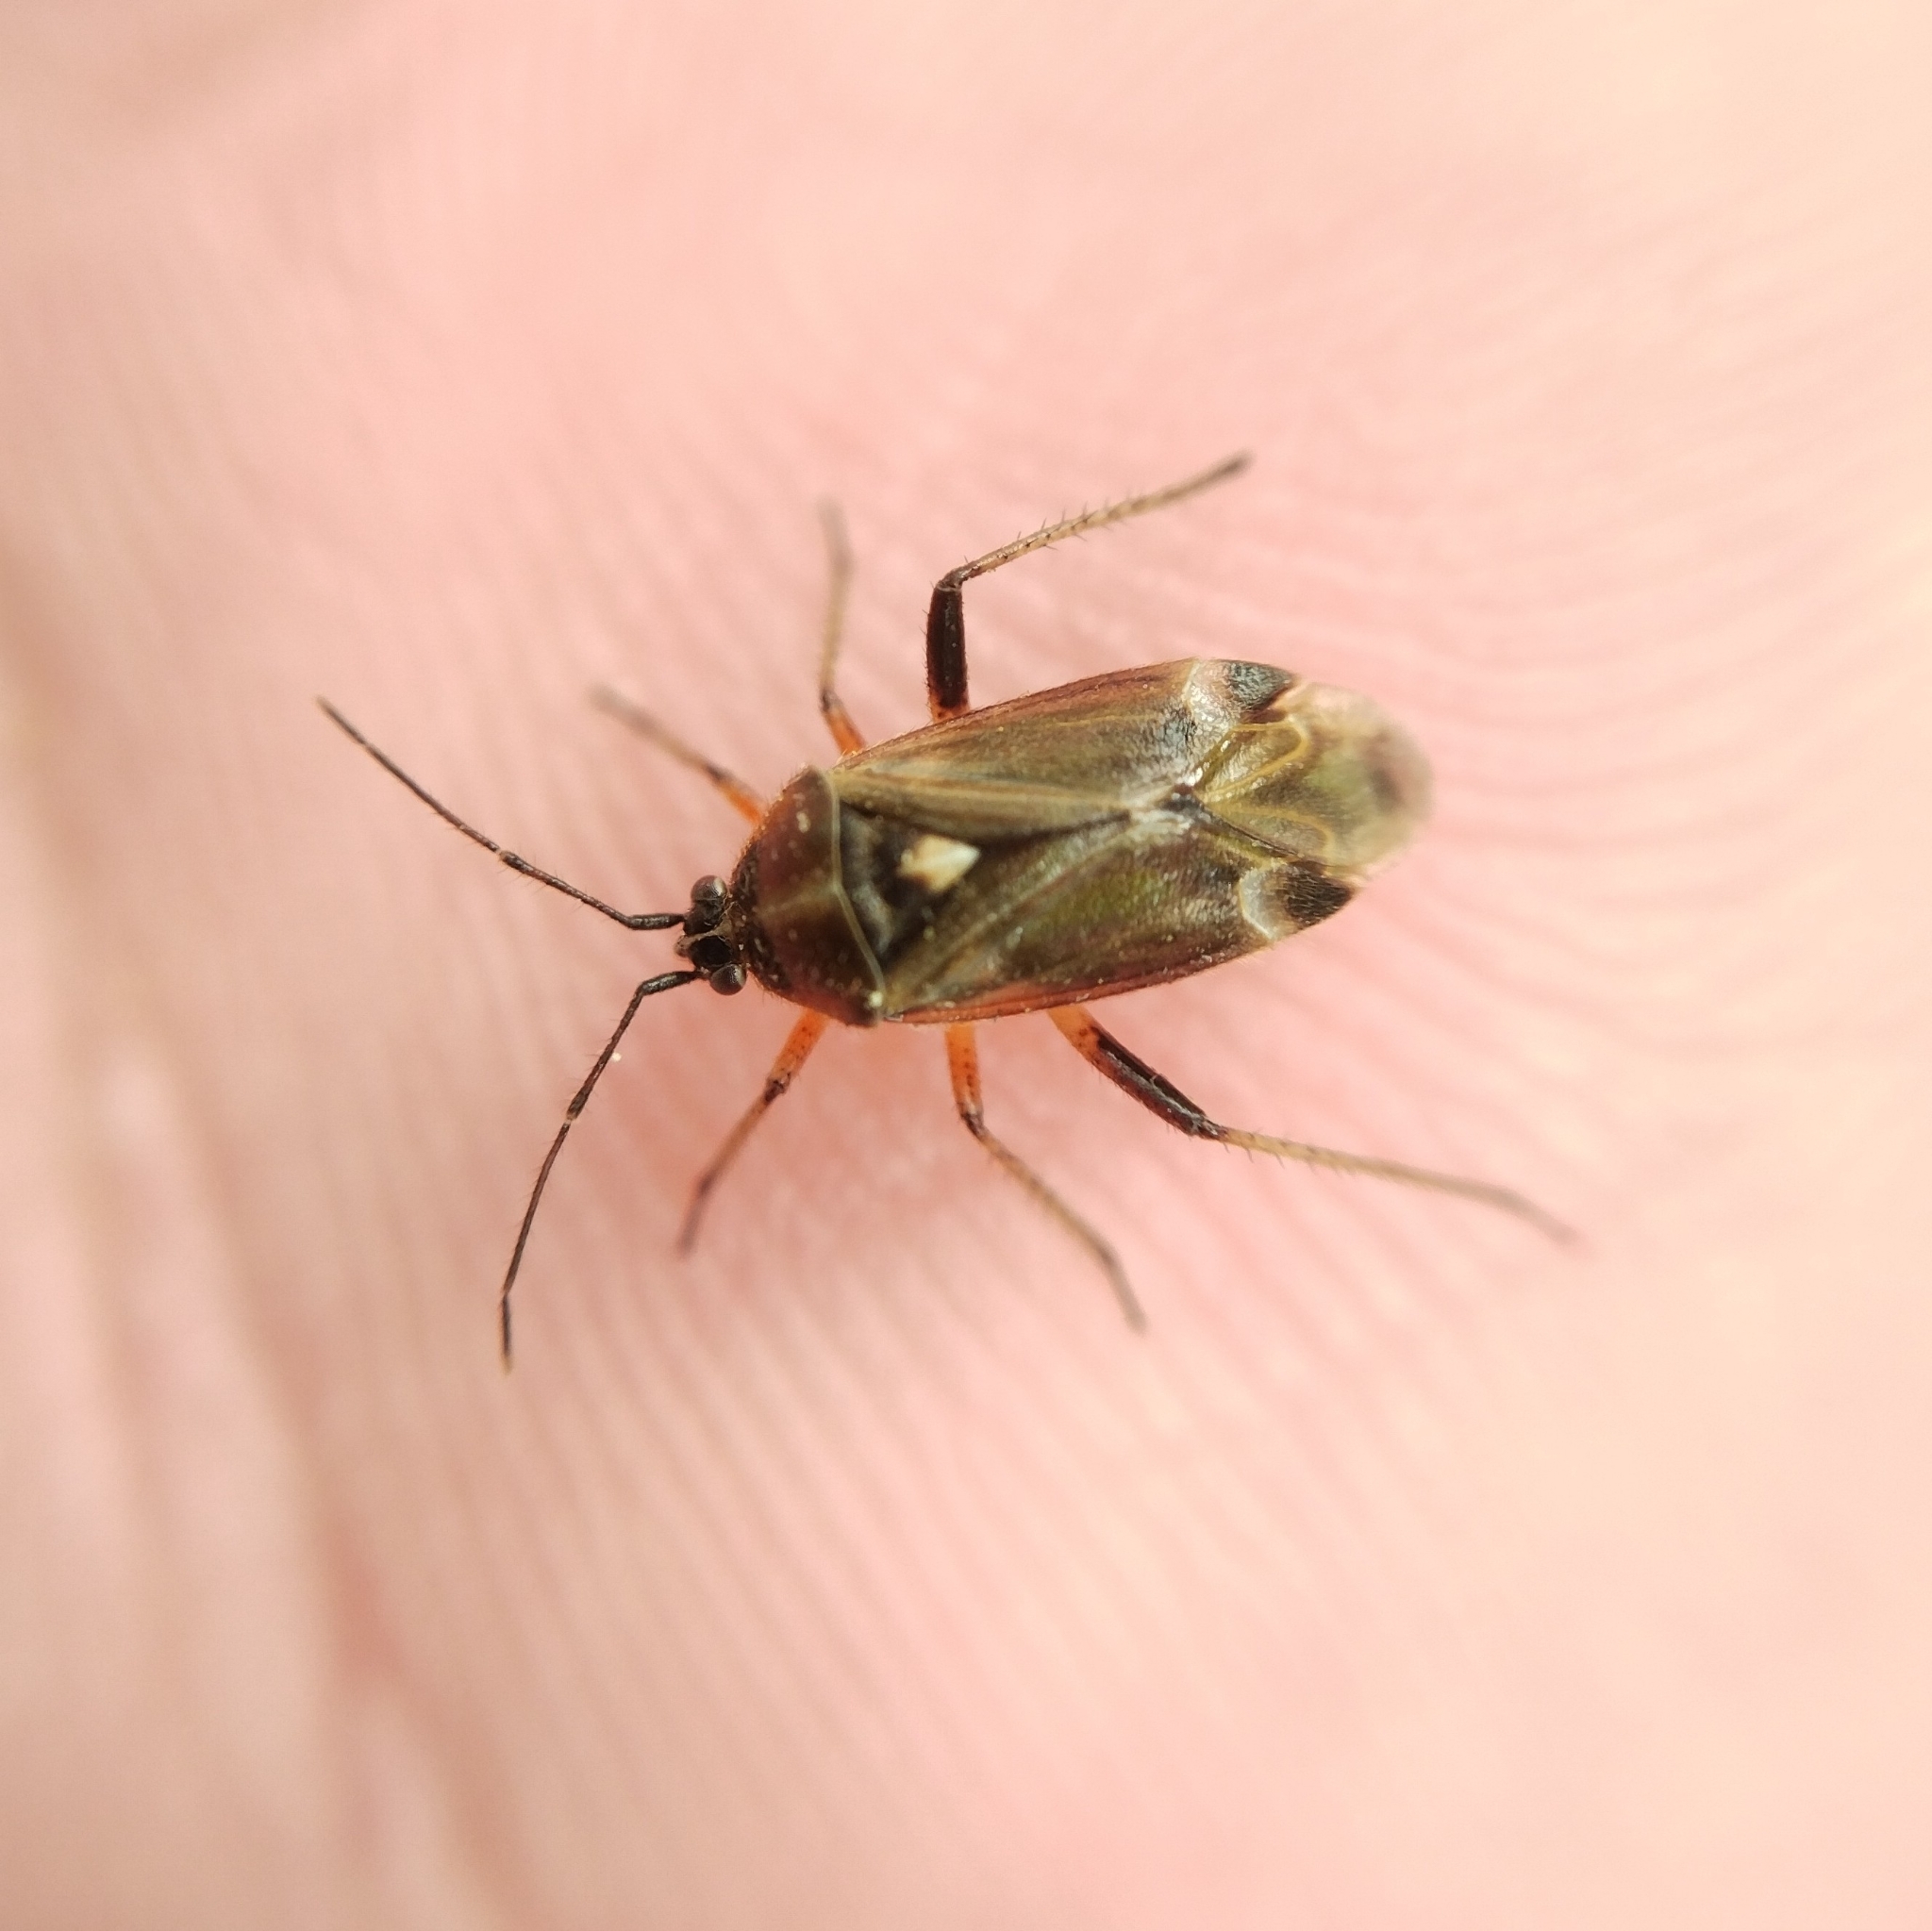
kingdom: Animalia
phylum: Arthropoda
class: Insecta
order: Hemiptera
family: Miridae
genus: Harpocera
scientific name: Harpocera thoracica
